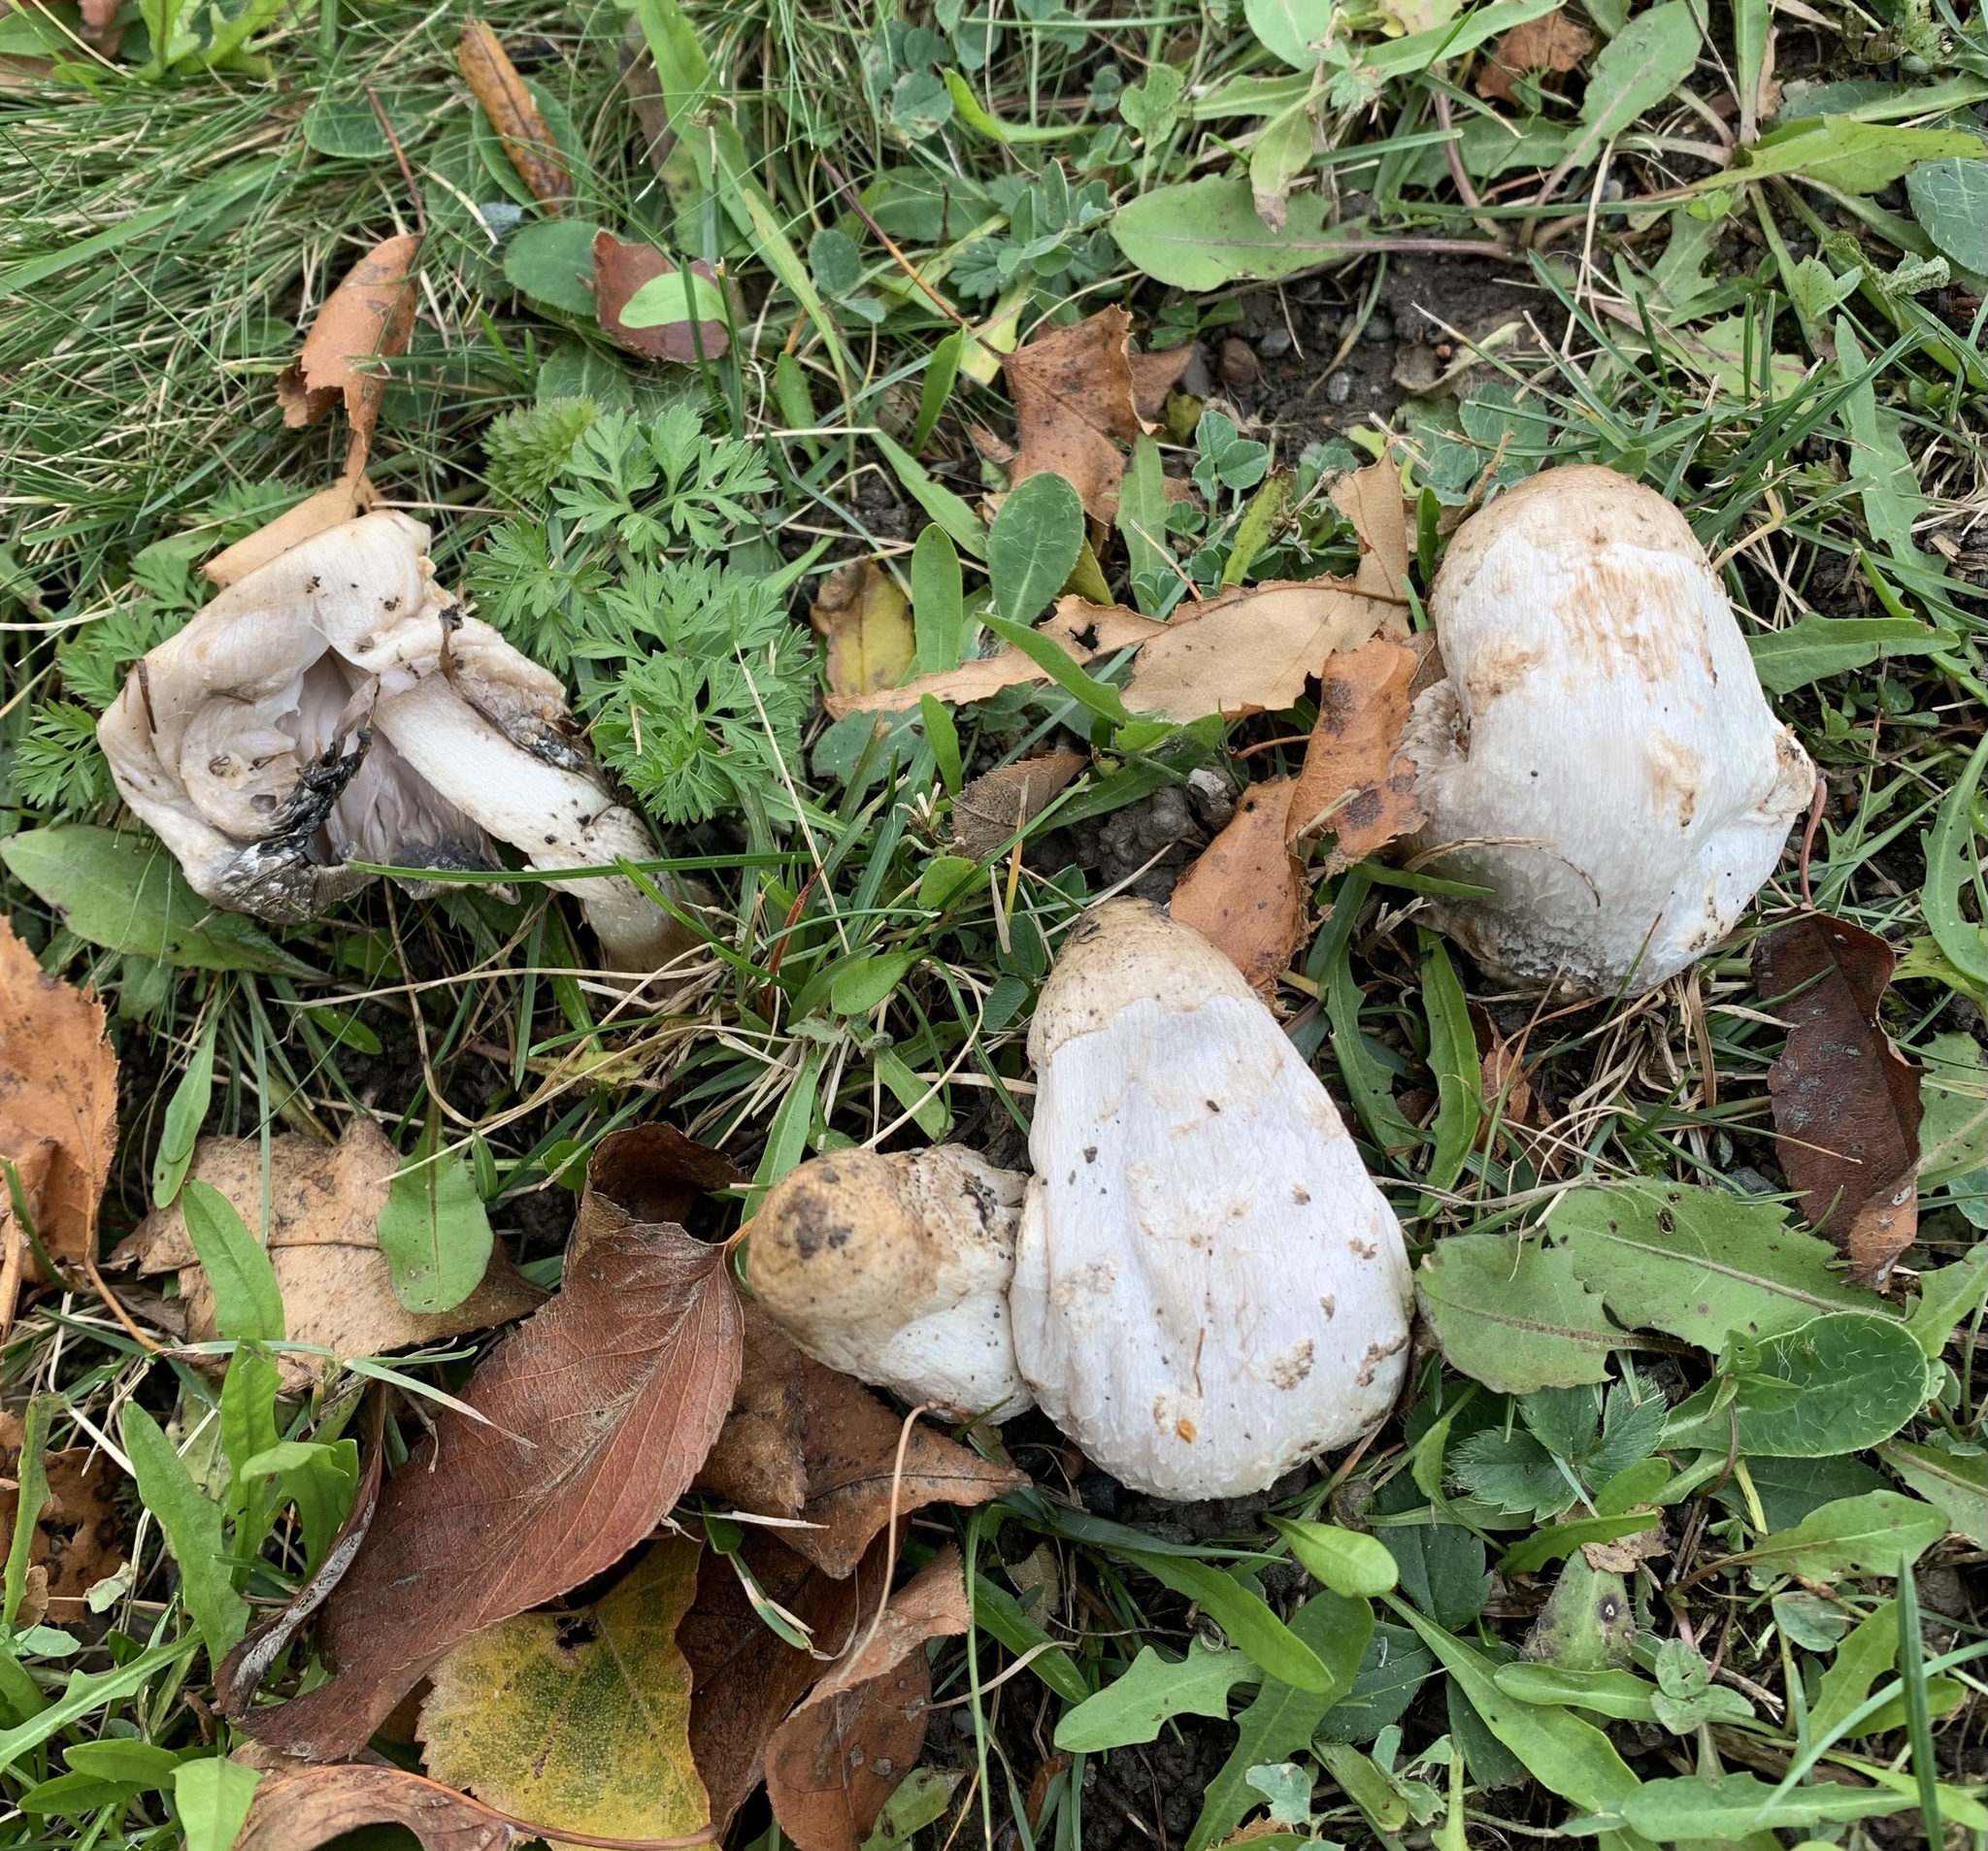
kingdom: Fungi
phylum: Basidiomycota
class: Agaricomycetes
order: Agaricales
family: Agaricaceae
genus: Coprinus
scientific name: Coprinus comatus
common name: Lawyer's wig
